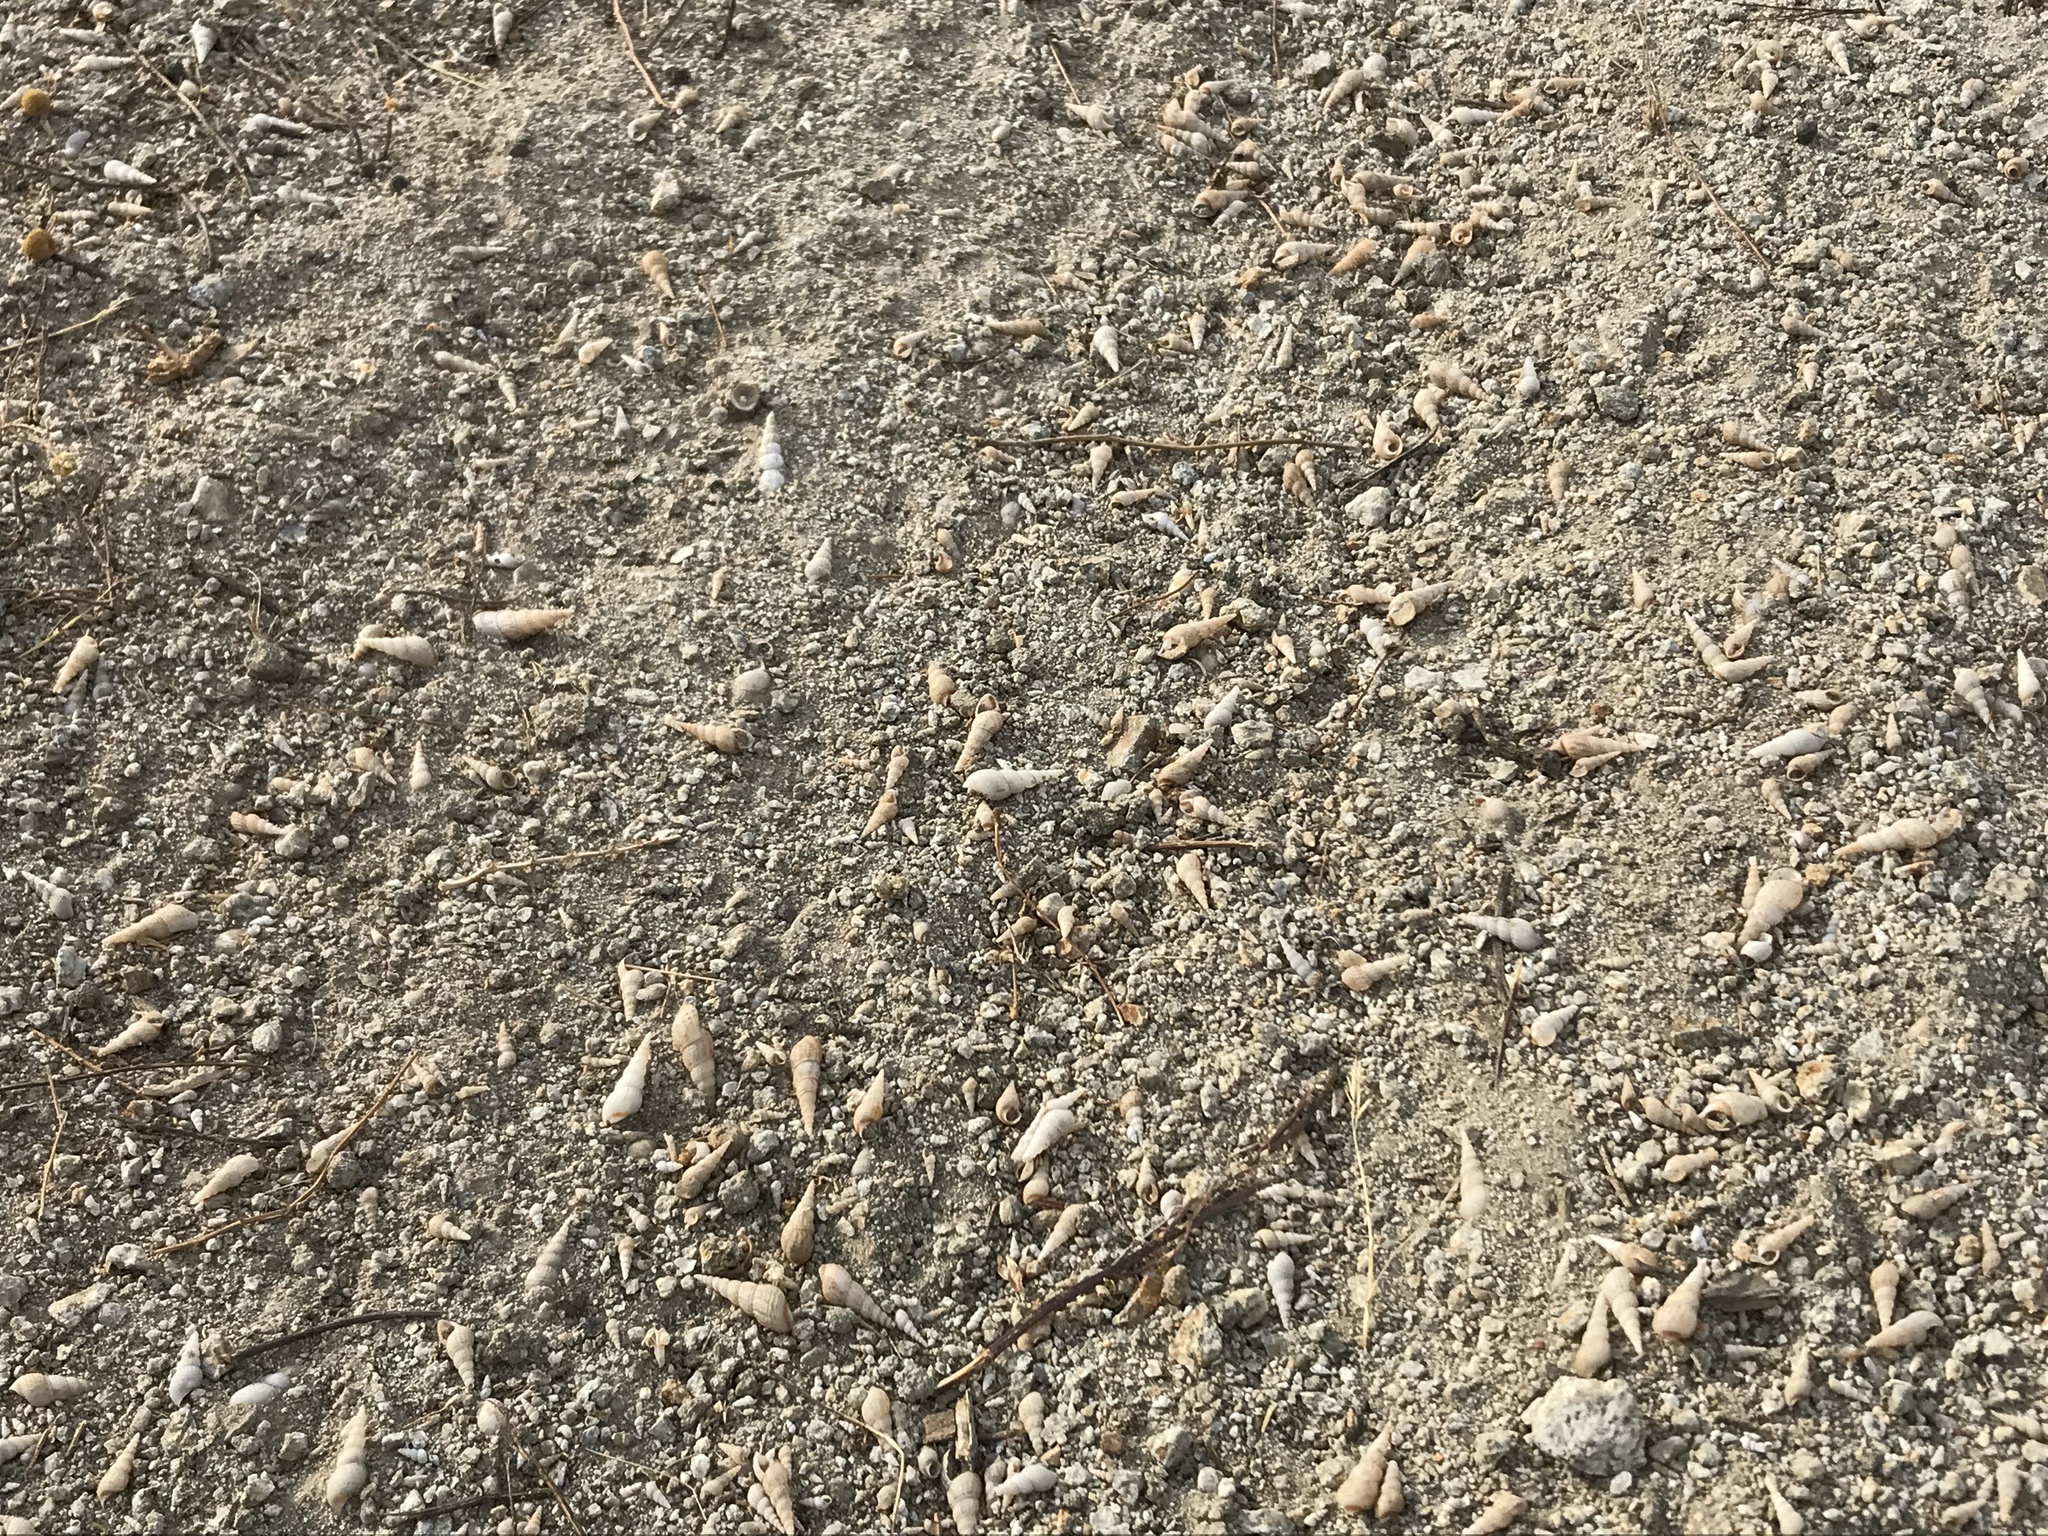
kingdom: Animalia
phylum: Mollusca
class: Gastropoda
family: Thiaridae
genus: Melanoides
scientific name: Melanoides tuberculata
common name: Red-rim melania
